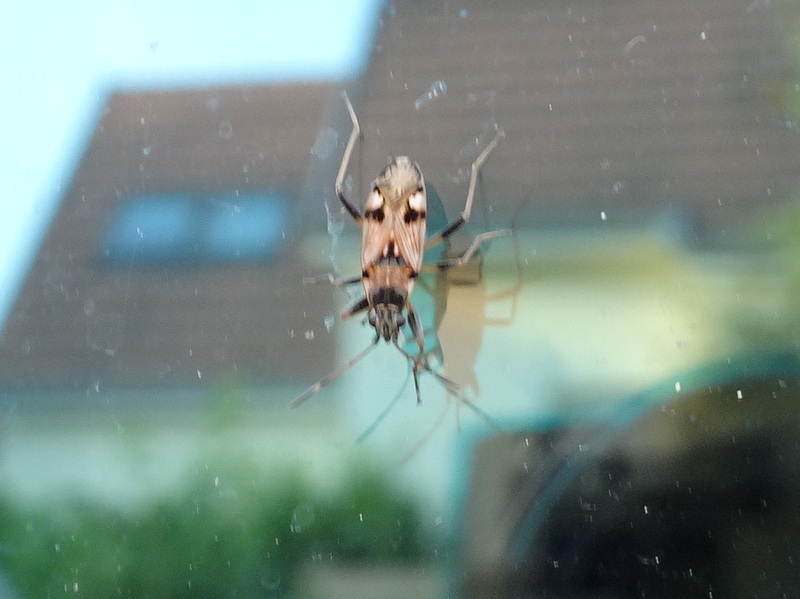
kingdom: Animalia
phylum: Arthropoda
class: Insecta
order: Hemiptera
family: Rhyparochromidae
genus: Beosus
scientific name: Beosus maritimus
